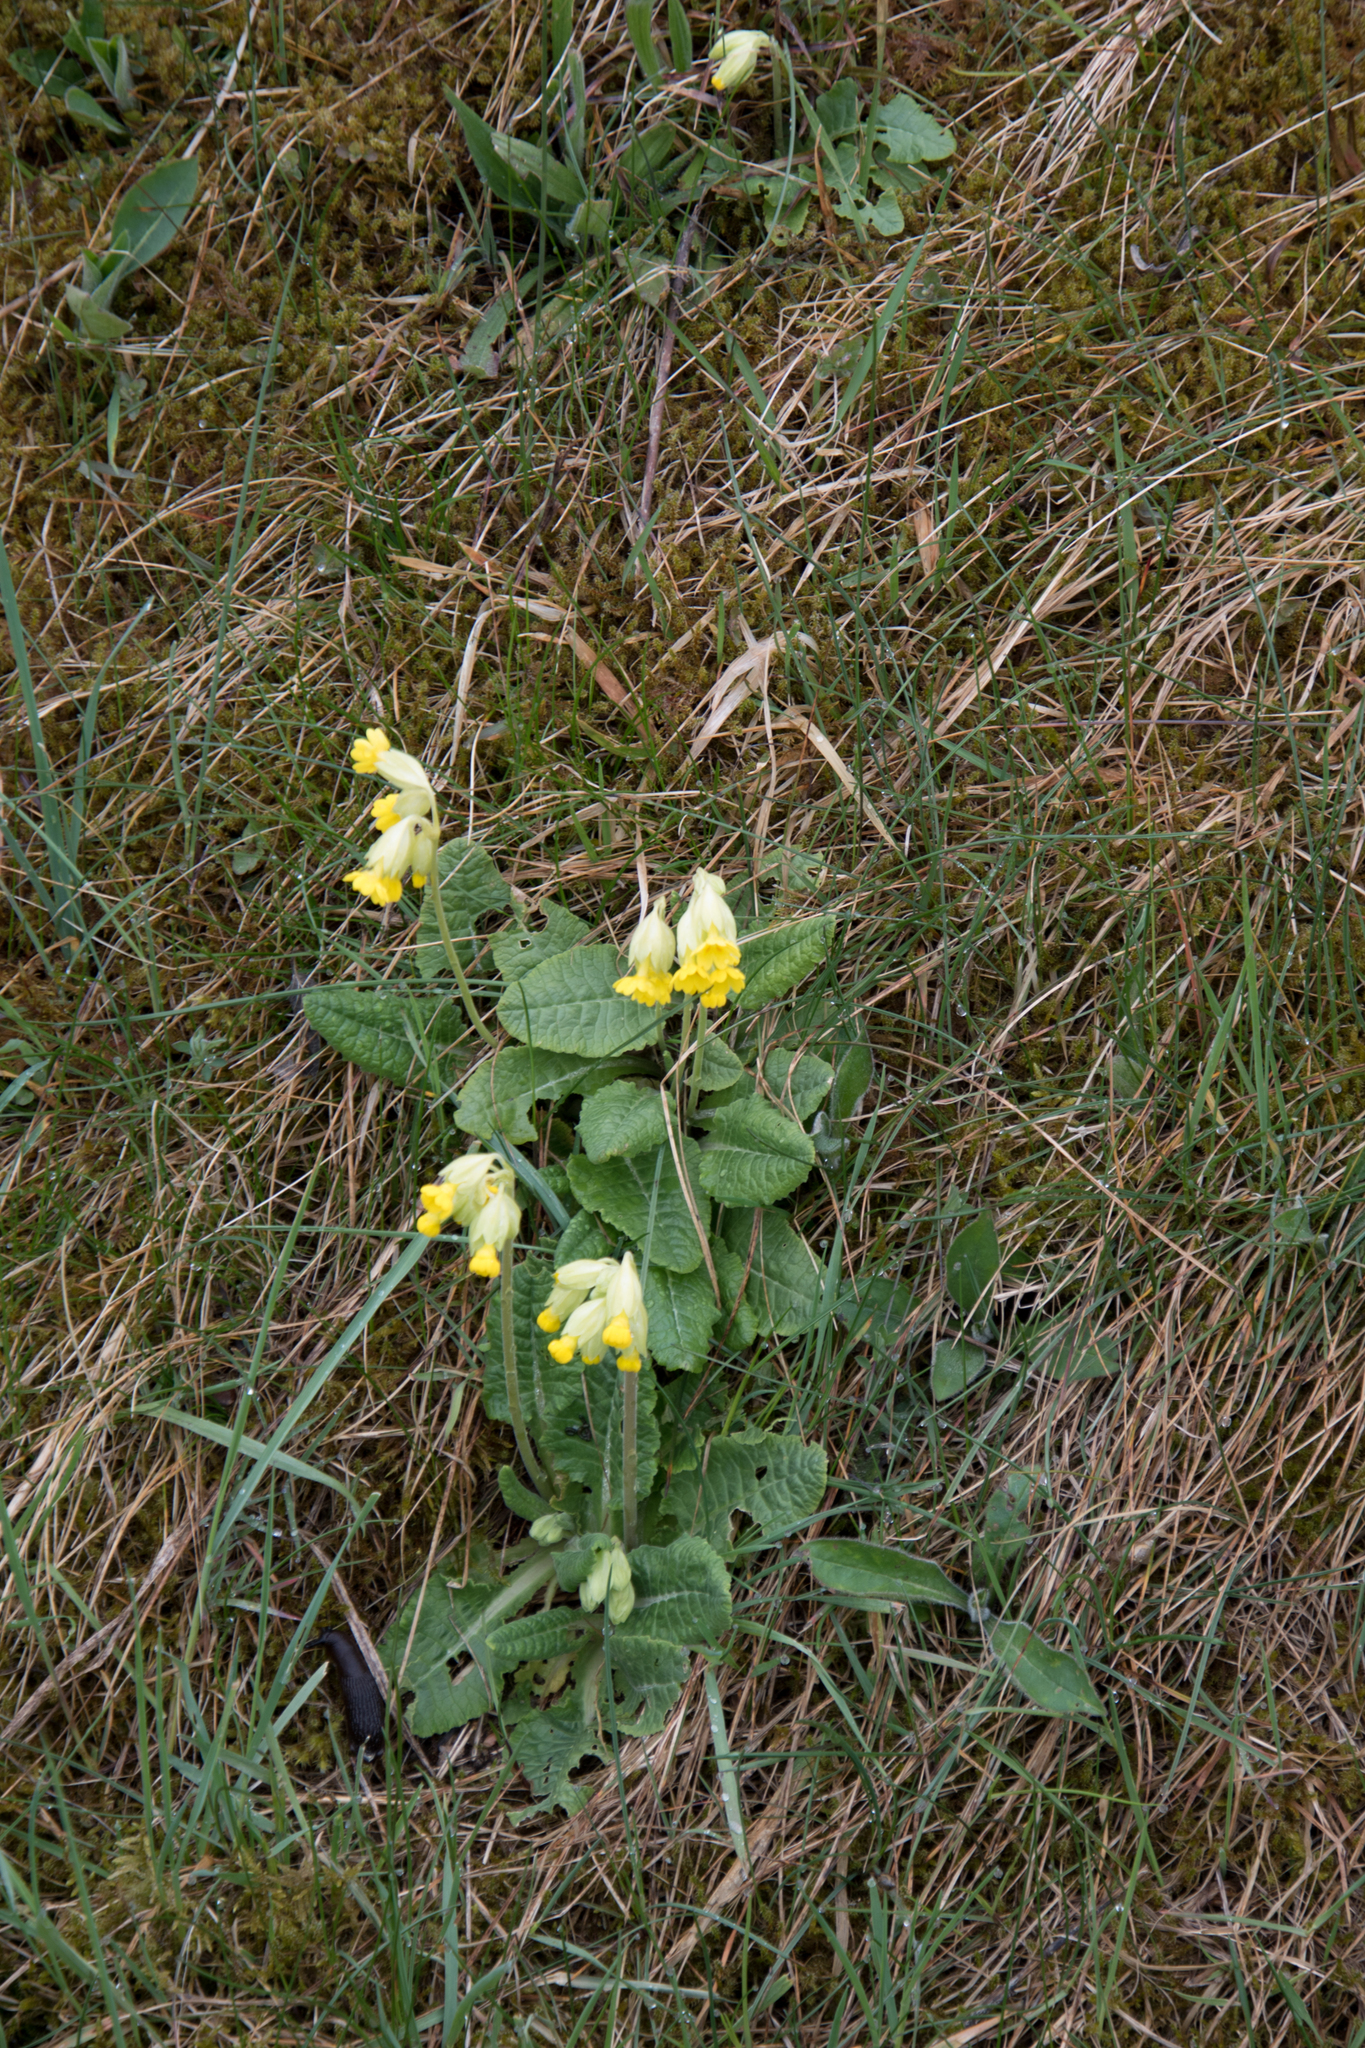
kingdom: Plantae
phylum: Tracheophyta
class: Magnoliopsida
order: Ericales
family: Primulaceae
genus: Primula
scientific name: Primula veris
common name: Cowslip
